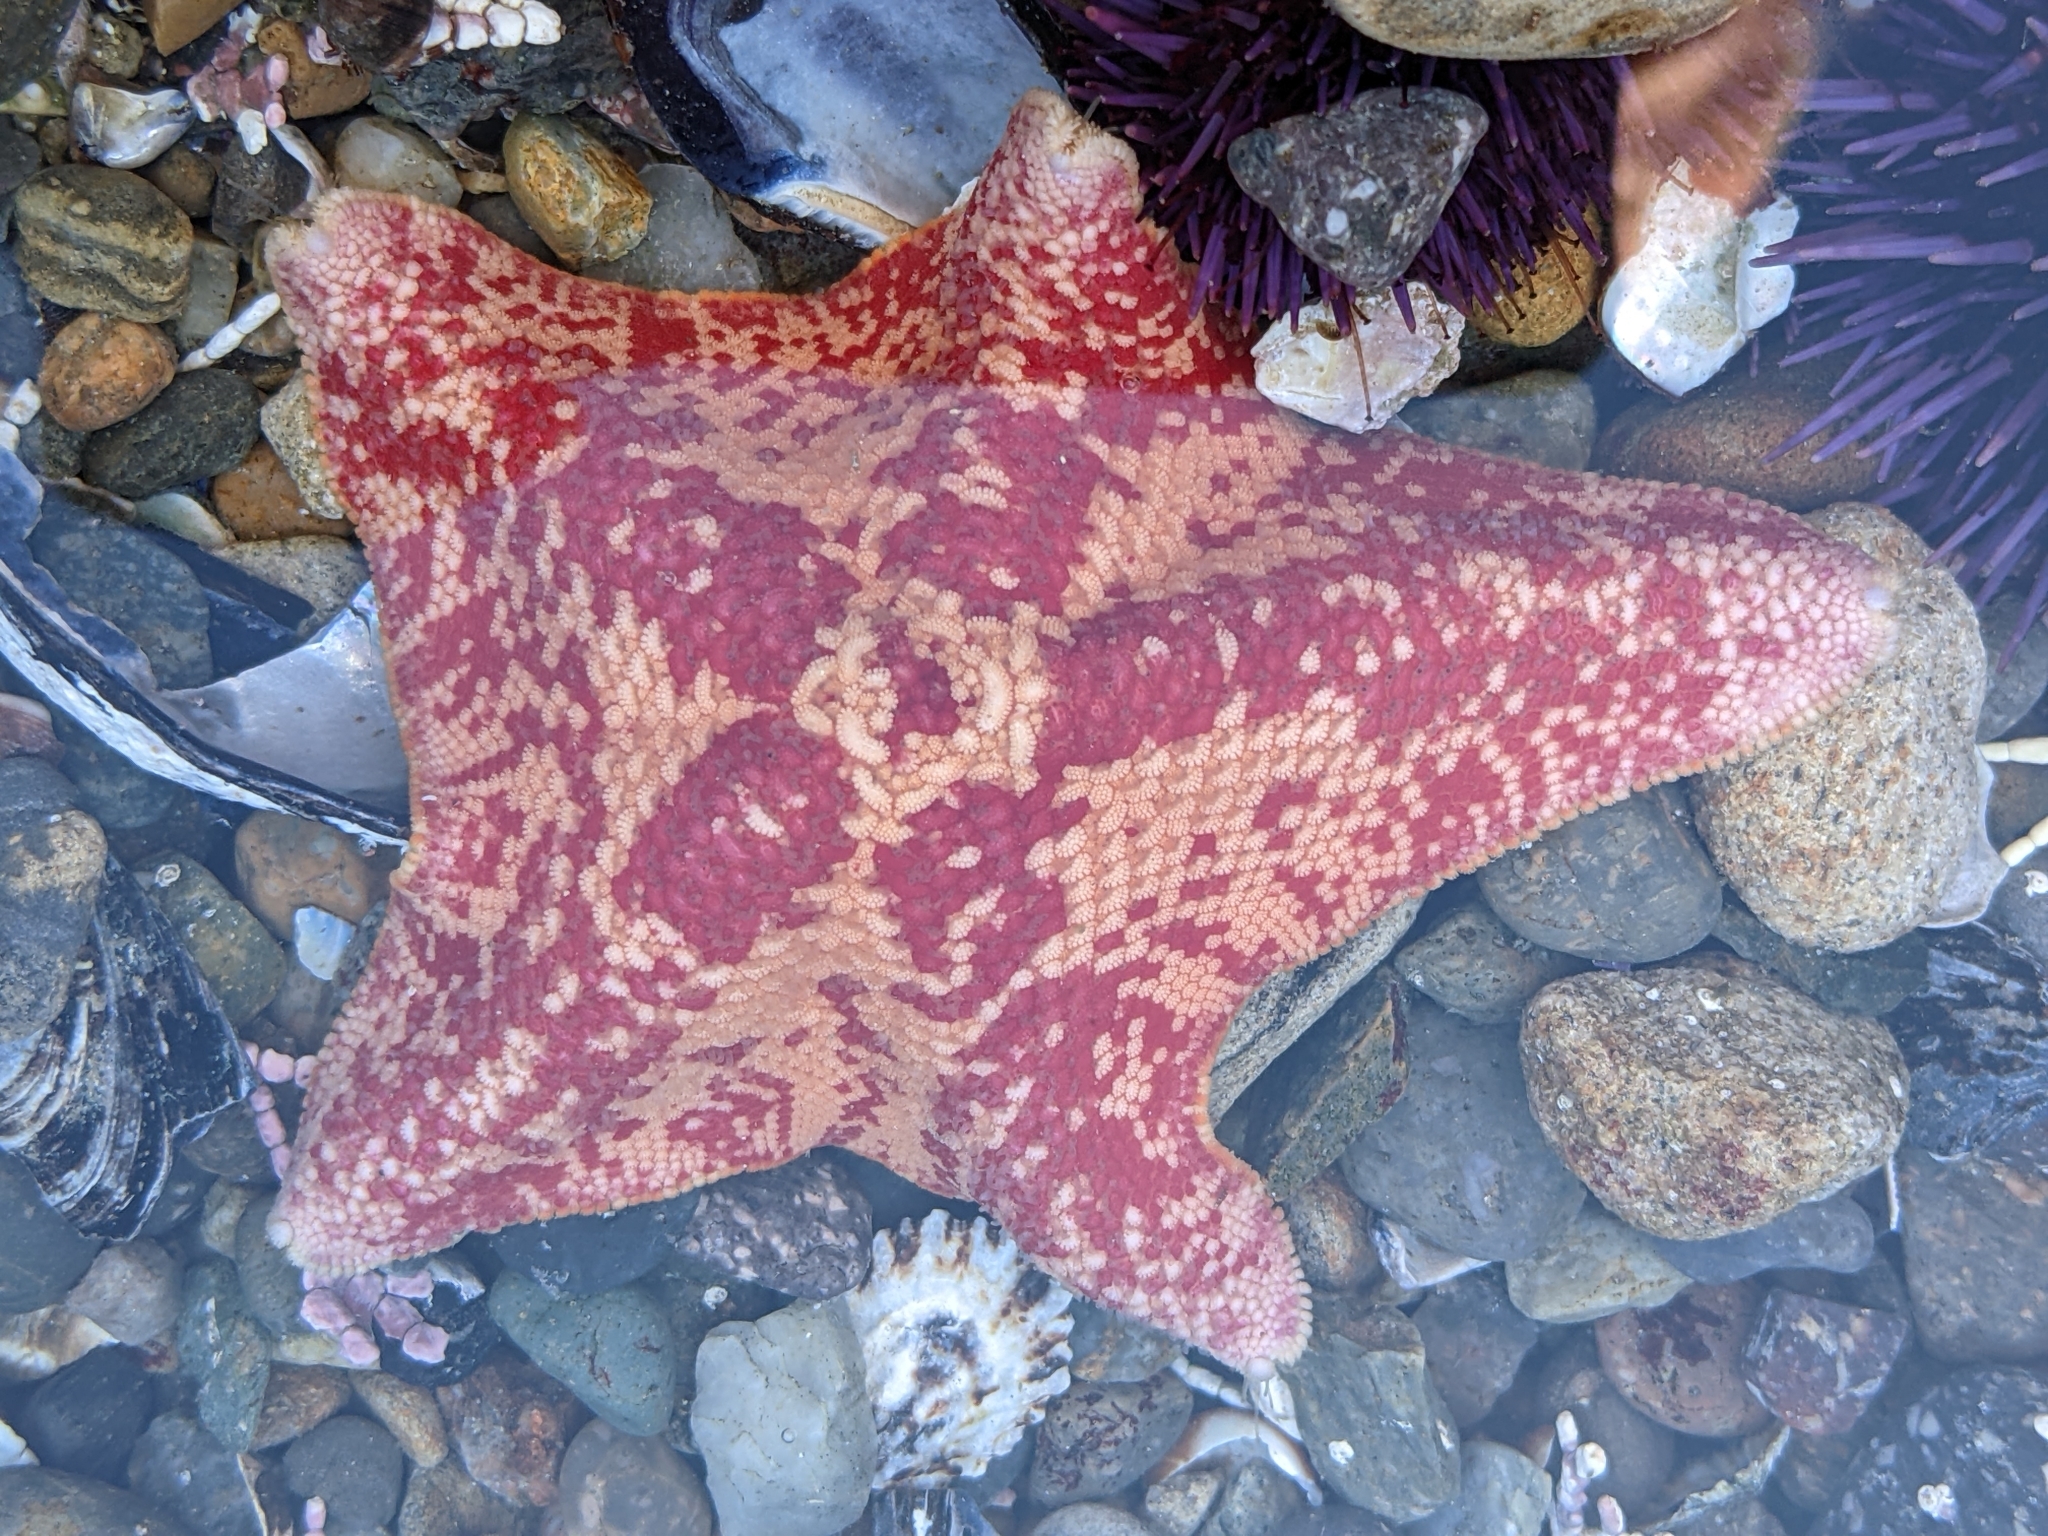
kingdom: Animalia
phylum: Echinodermata
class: Asteroidea
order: Valvatida
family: Asterinidae
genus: Patiria
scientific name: Patiria miniata
